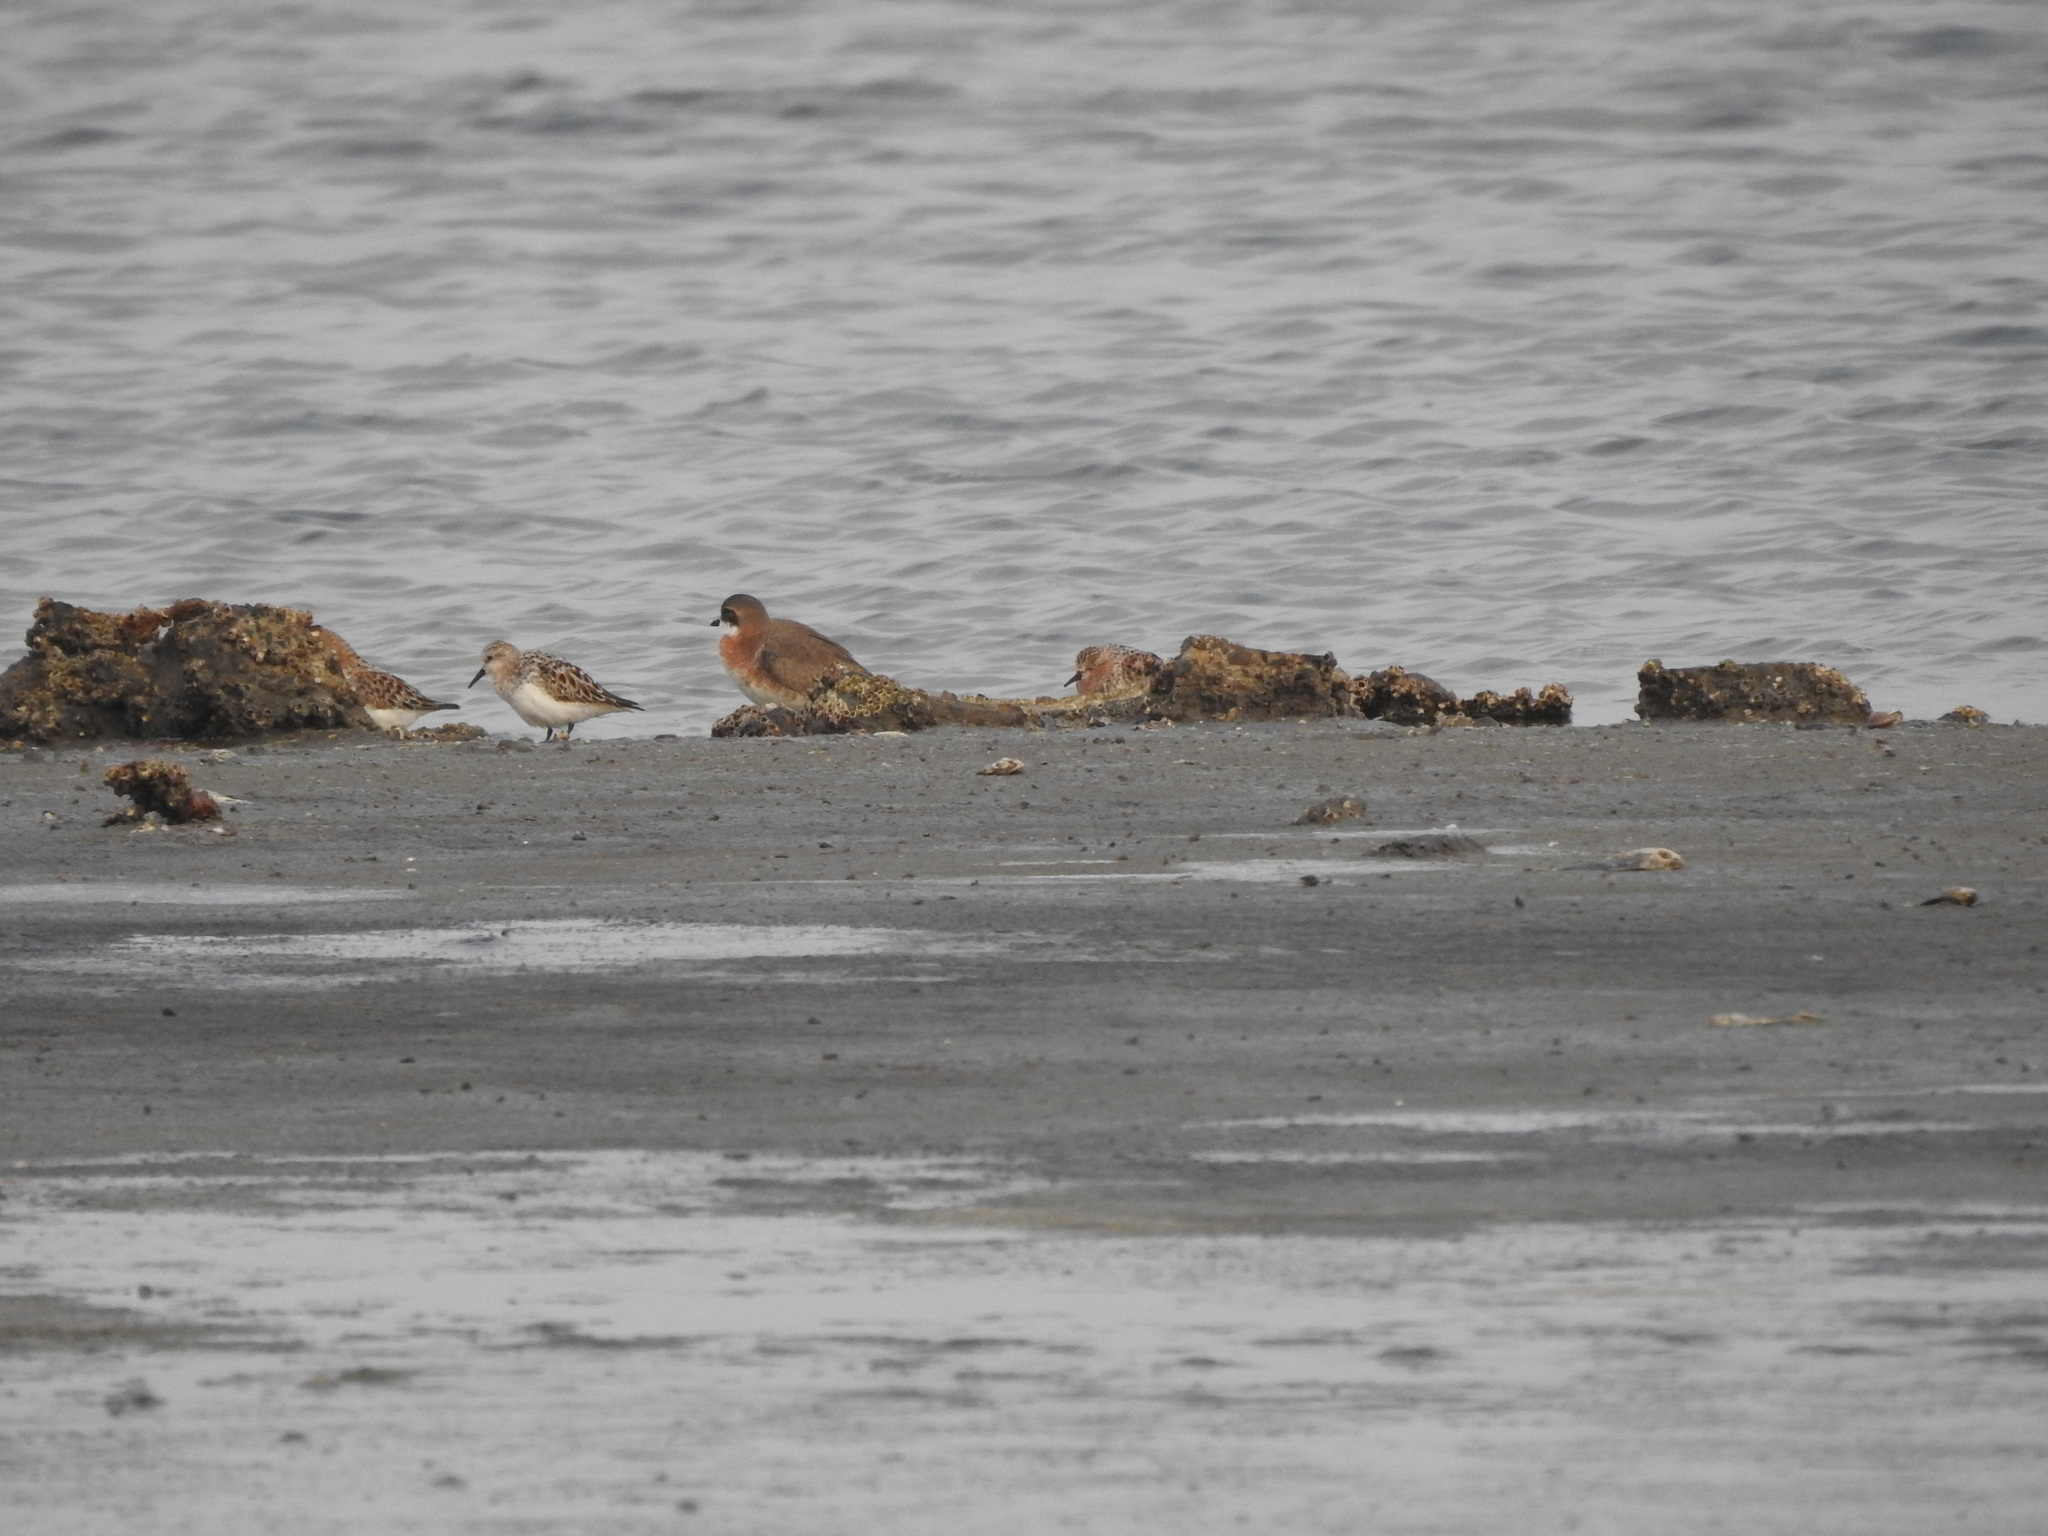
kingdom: Animalia
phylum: Chordata
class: Aves
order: Charadriiformes
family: Scolopacidae
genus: Calidris
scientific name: Calidris ruficollis
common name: Red-necked stint
